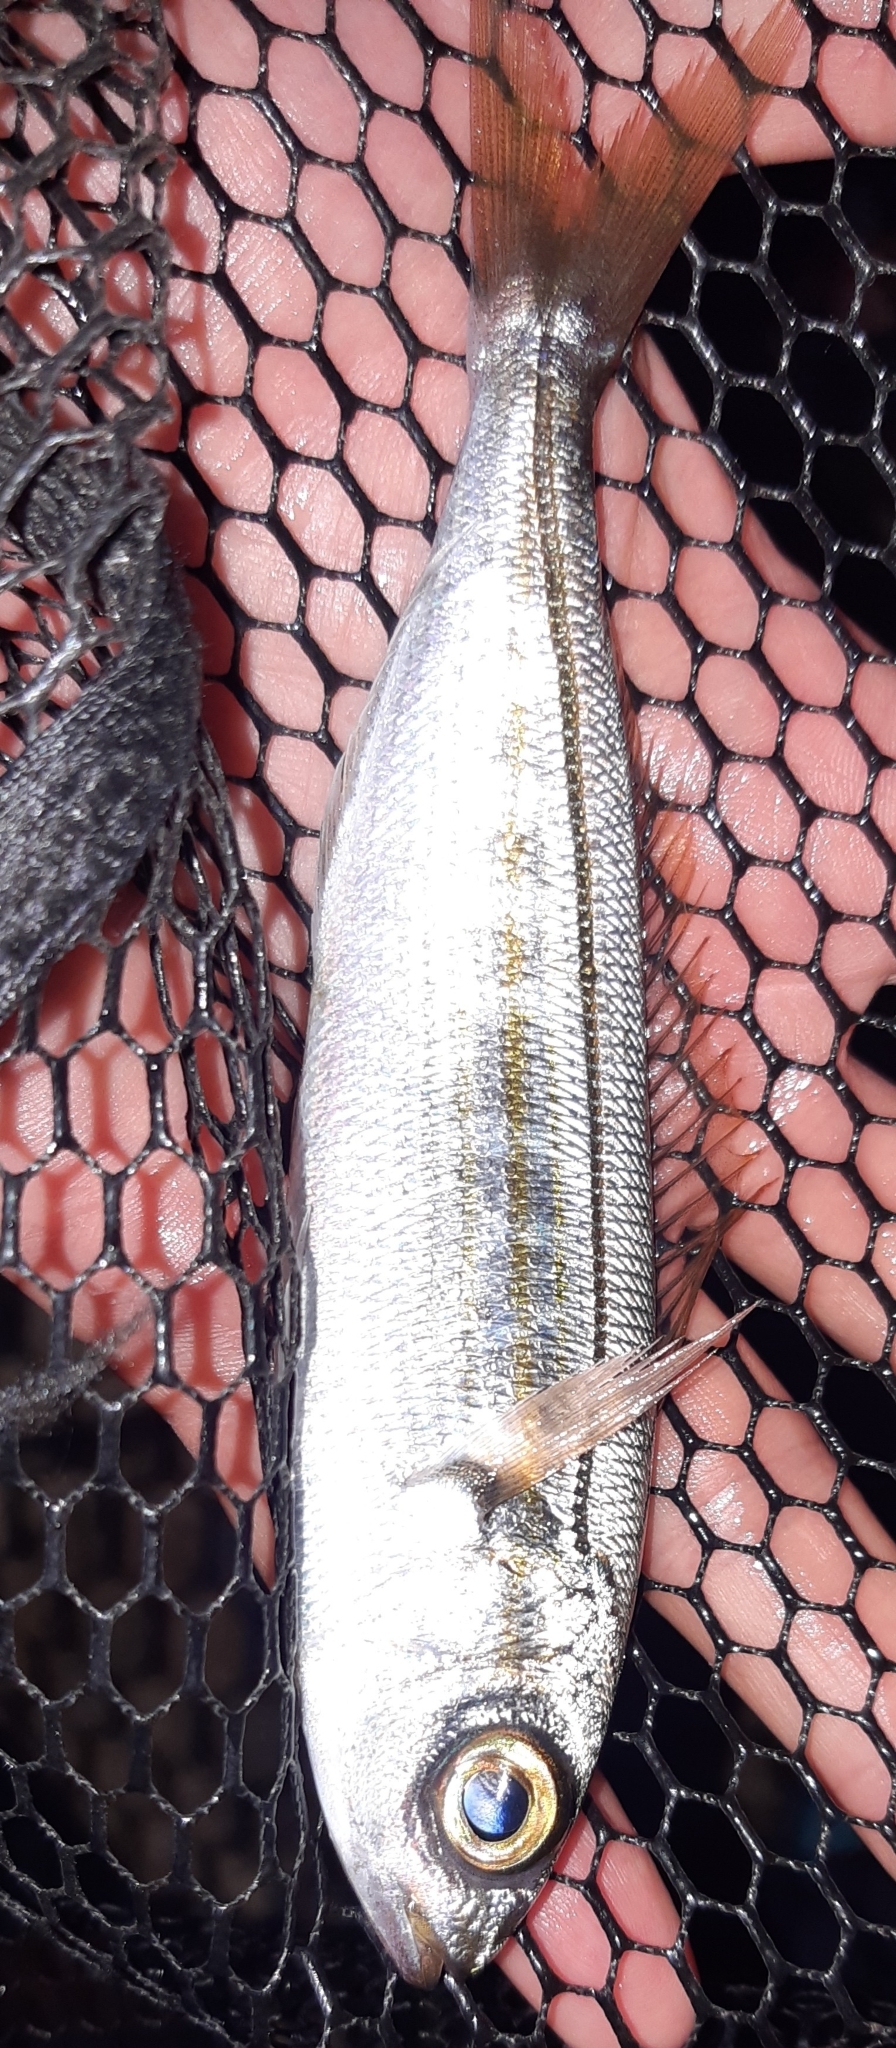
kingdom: Animalia
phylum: Chordata
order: Perciformes
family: Sparidae
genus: Boops
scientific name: Boops boops
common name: Bogue
